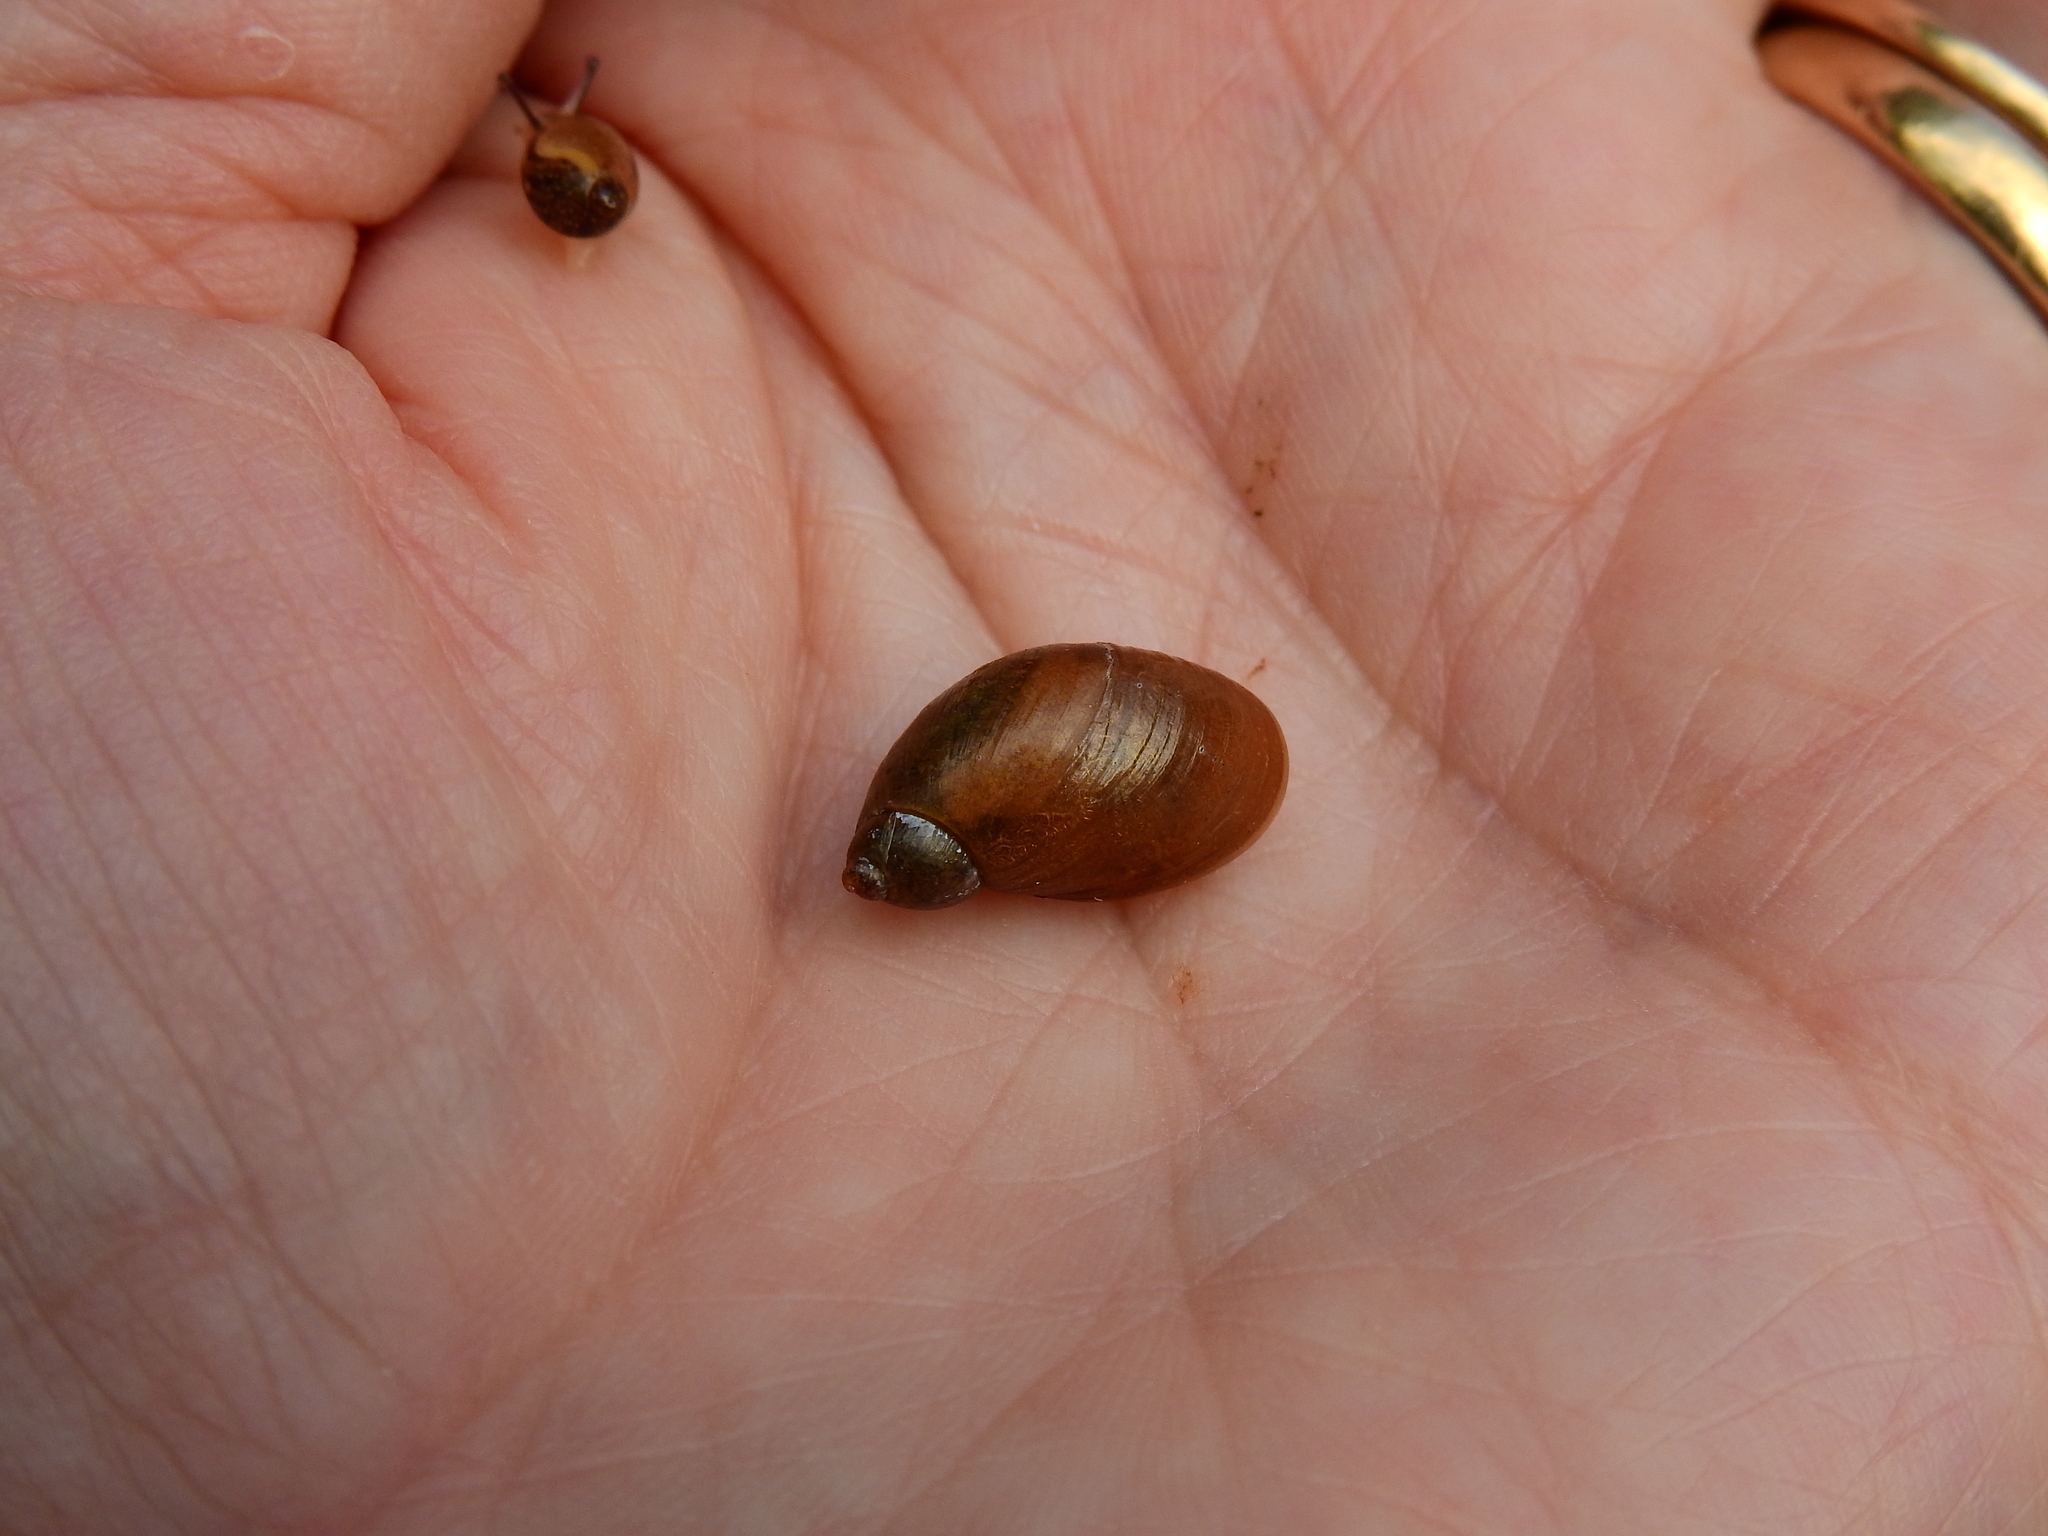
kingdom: Animalia
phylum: Mollusca
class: Gastropoda
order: Stylommatophora
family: Succineidae
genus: Succinea
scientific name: Succinea putris
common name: European ambersnail
